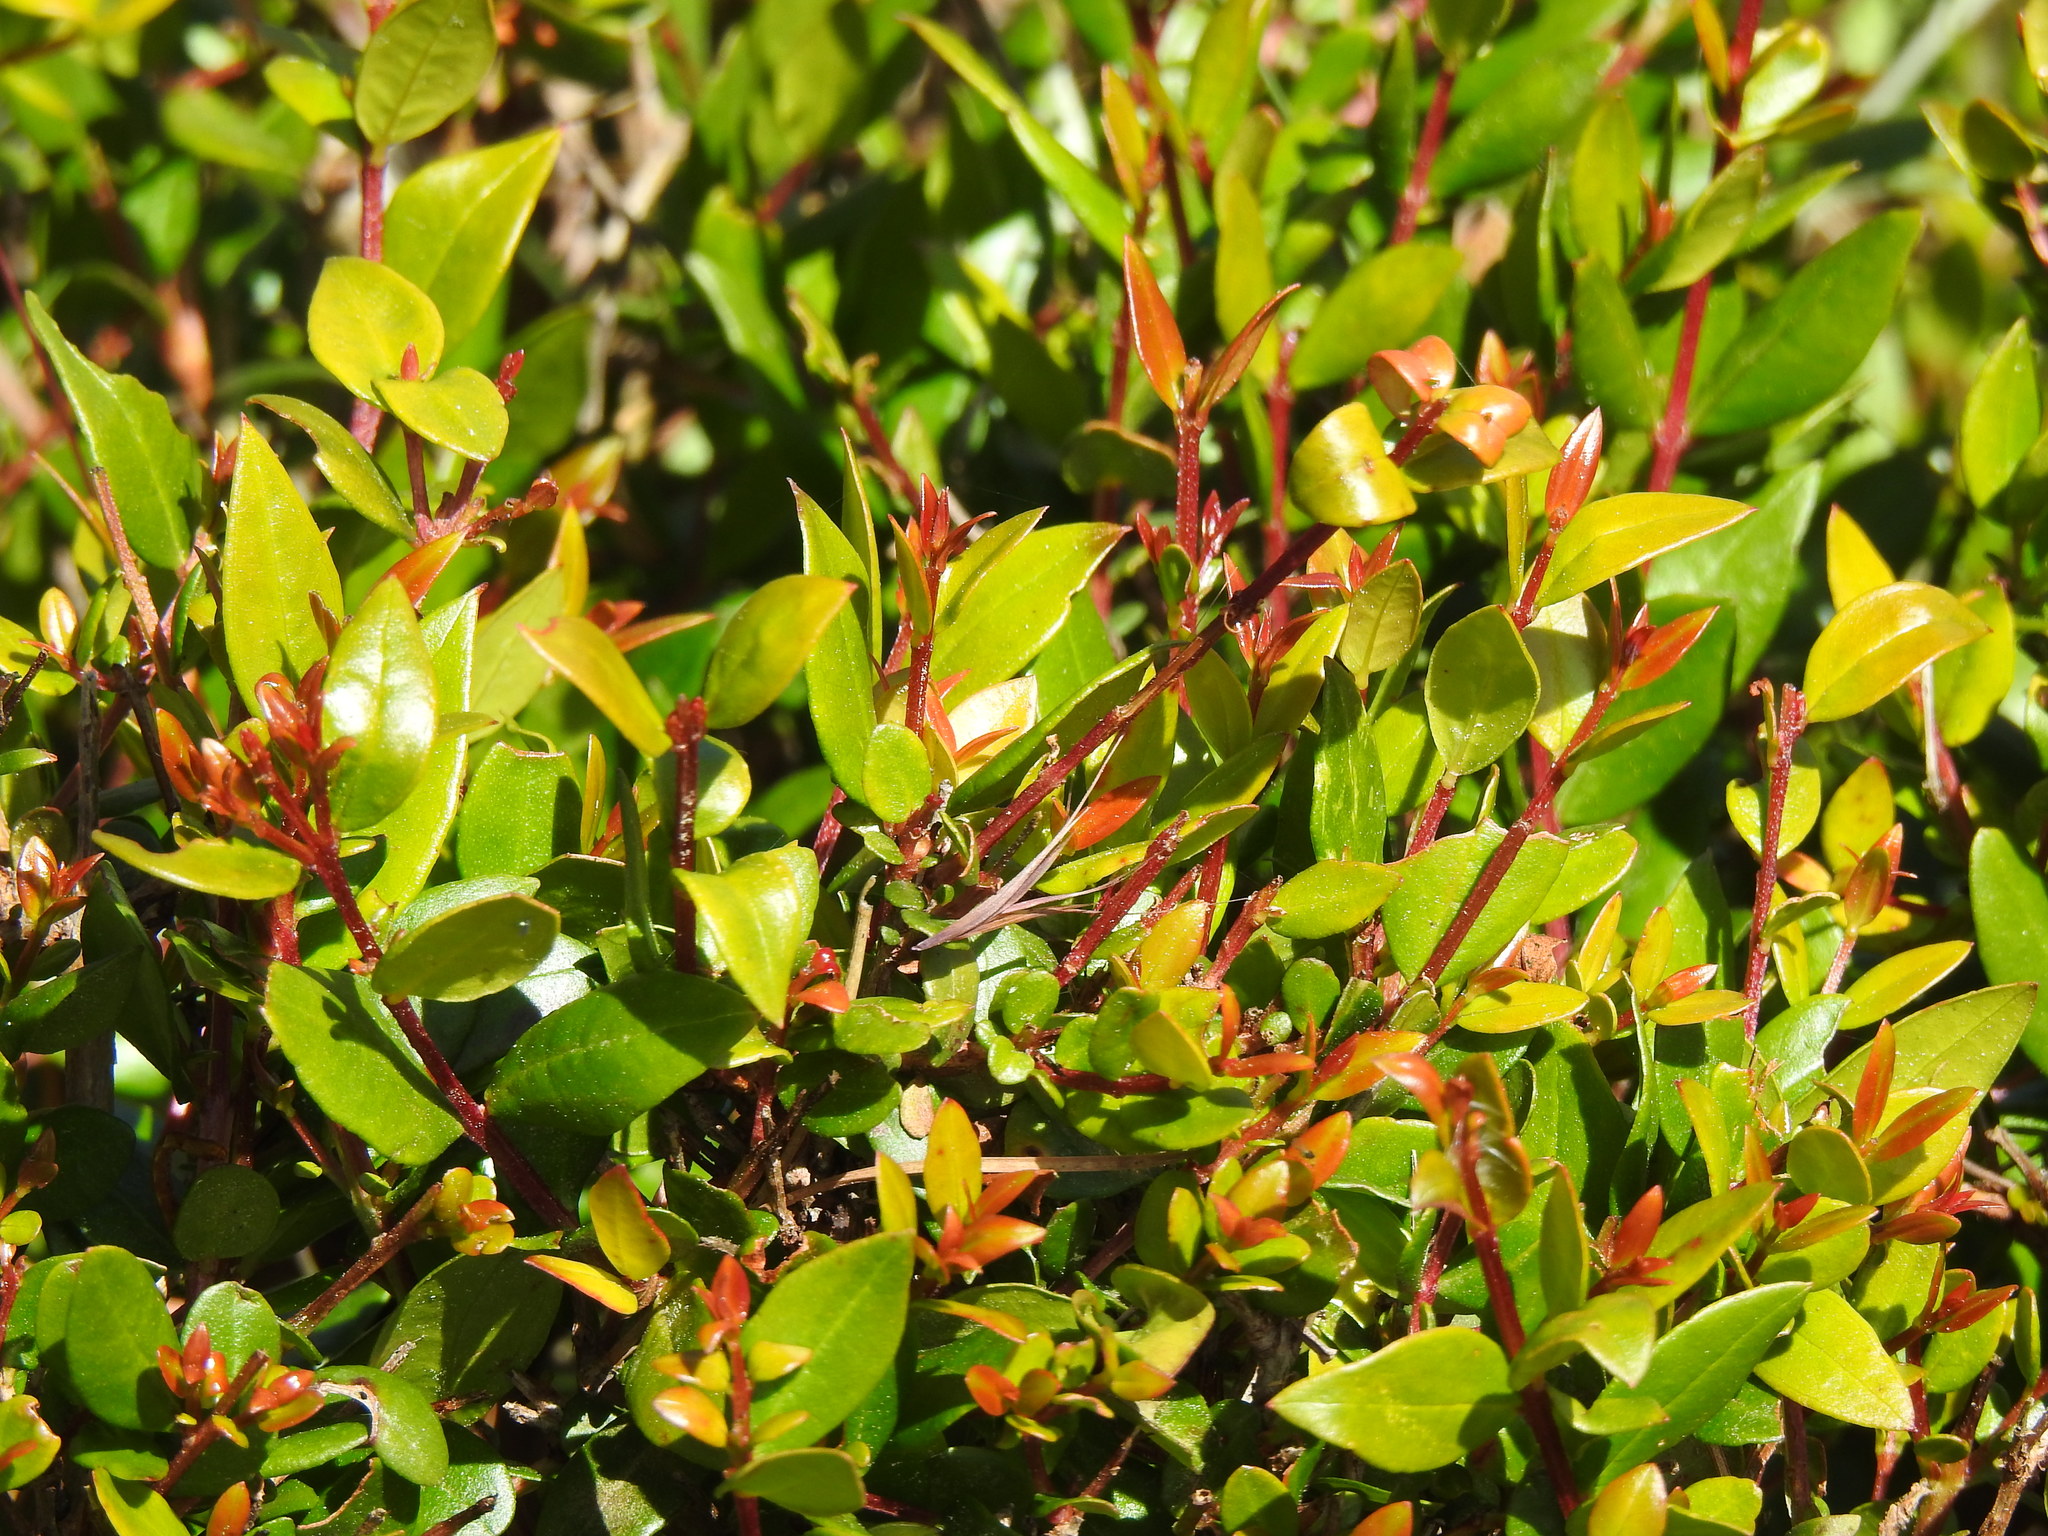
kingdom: Plantae
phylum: Tracheophyta
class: Magnoliopsida
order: Myrtales
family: Myrtaceae
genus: Myrtus
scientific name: Myrtus communis
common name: Myrtle
